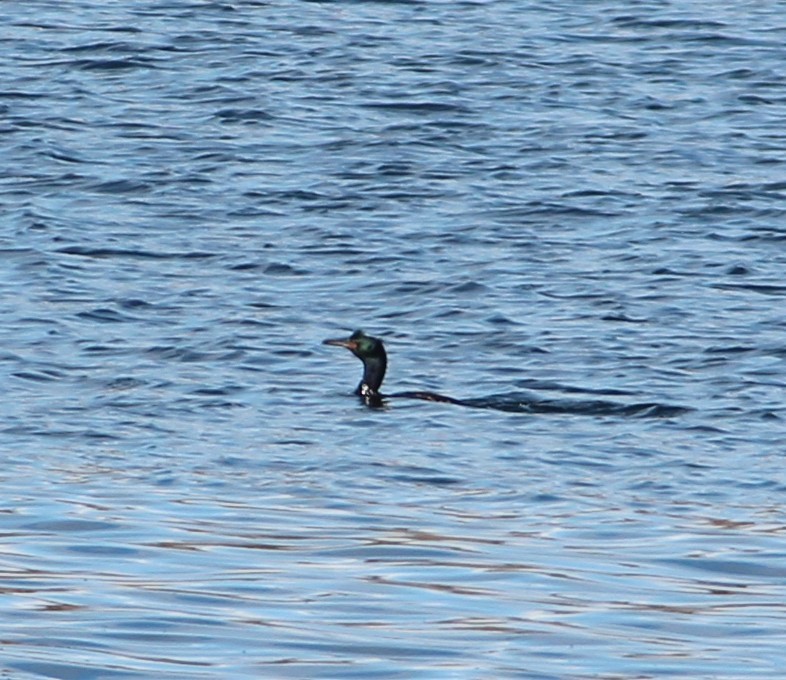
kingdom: Animalia
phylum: Chordata
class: Aves
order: Suliformes
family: Phalacrocoracidae
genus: Phalacrocorax
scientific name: Phalacrocorax pelagicus
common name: Pelagic cormorant
